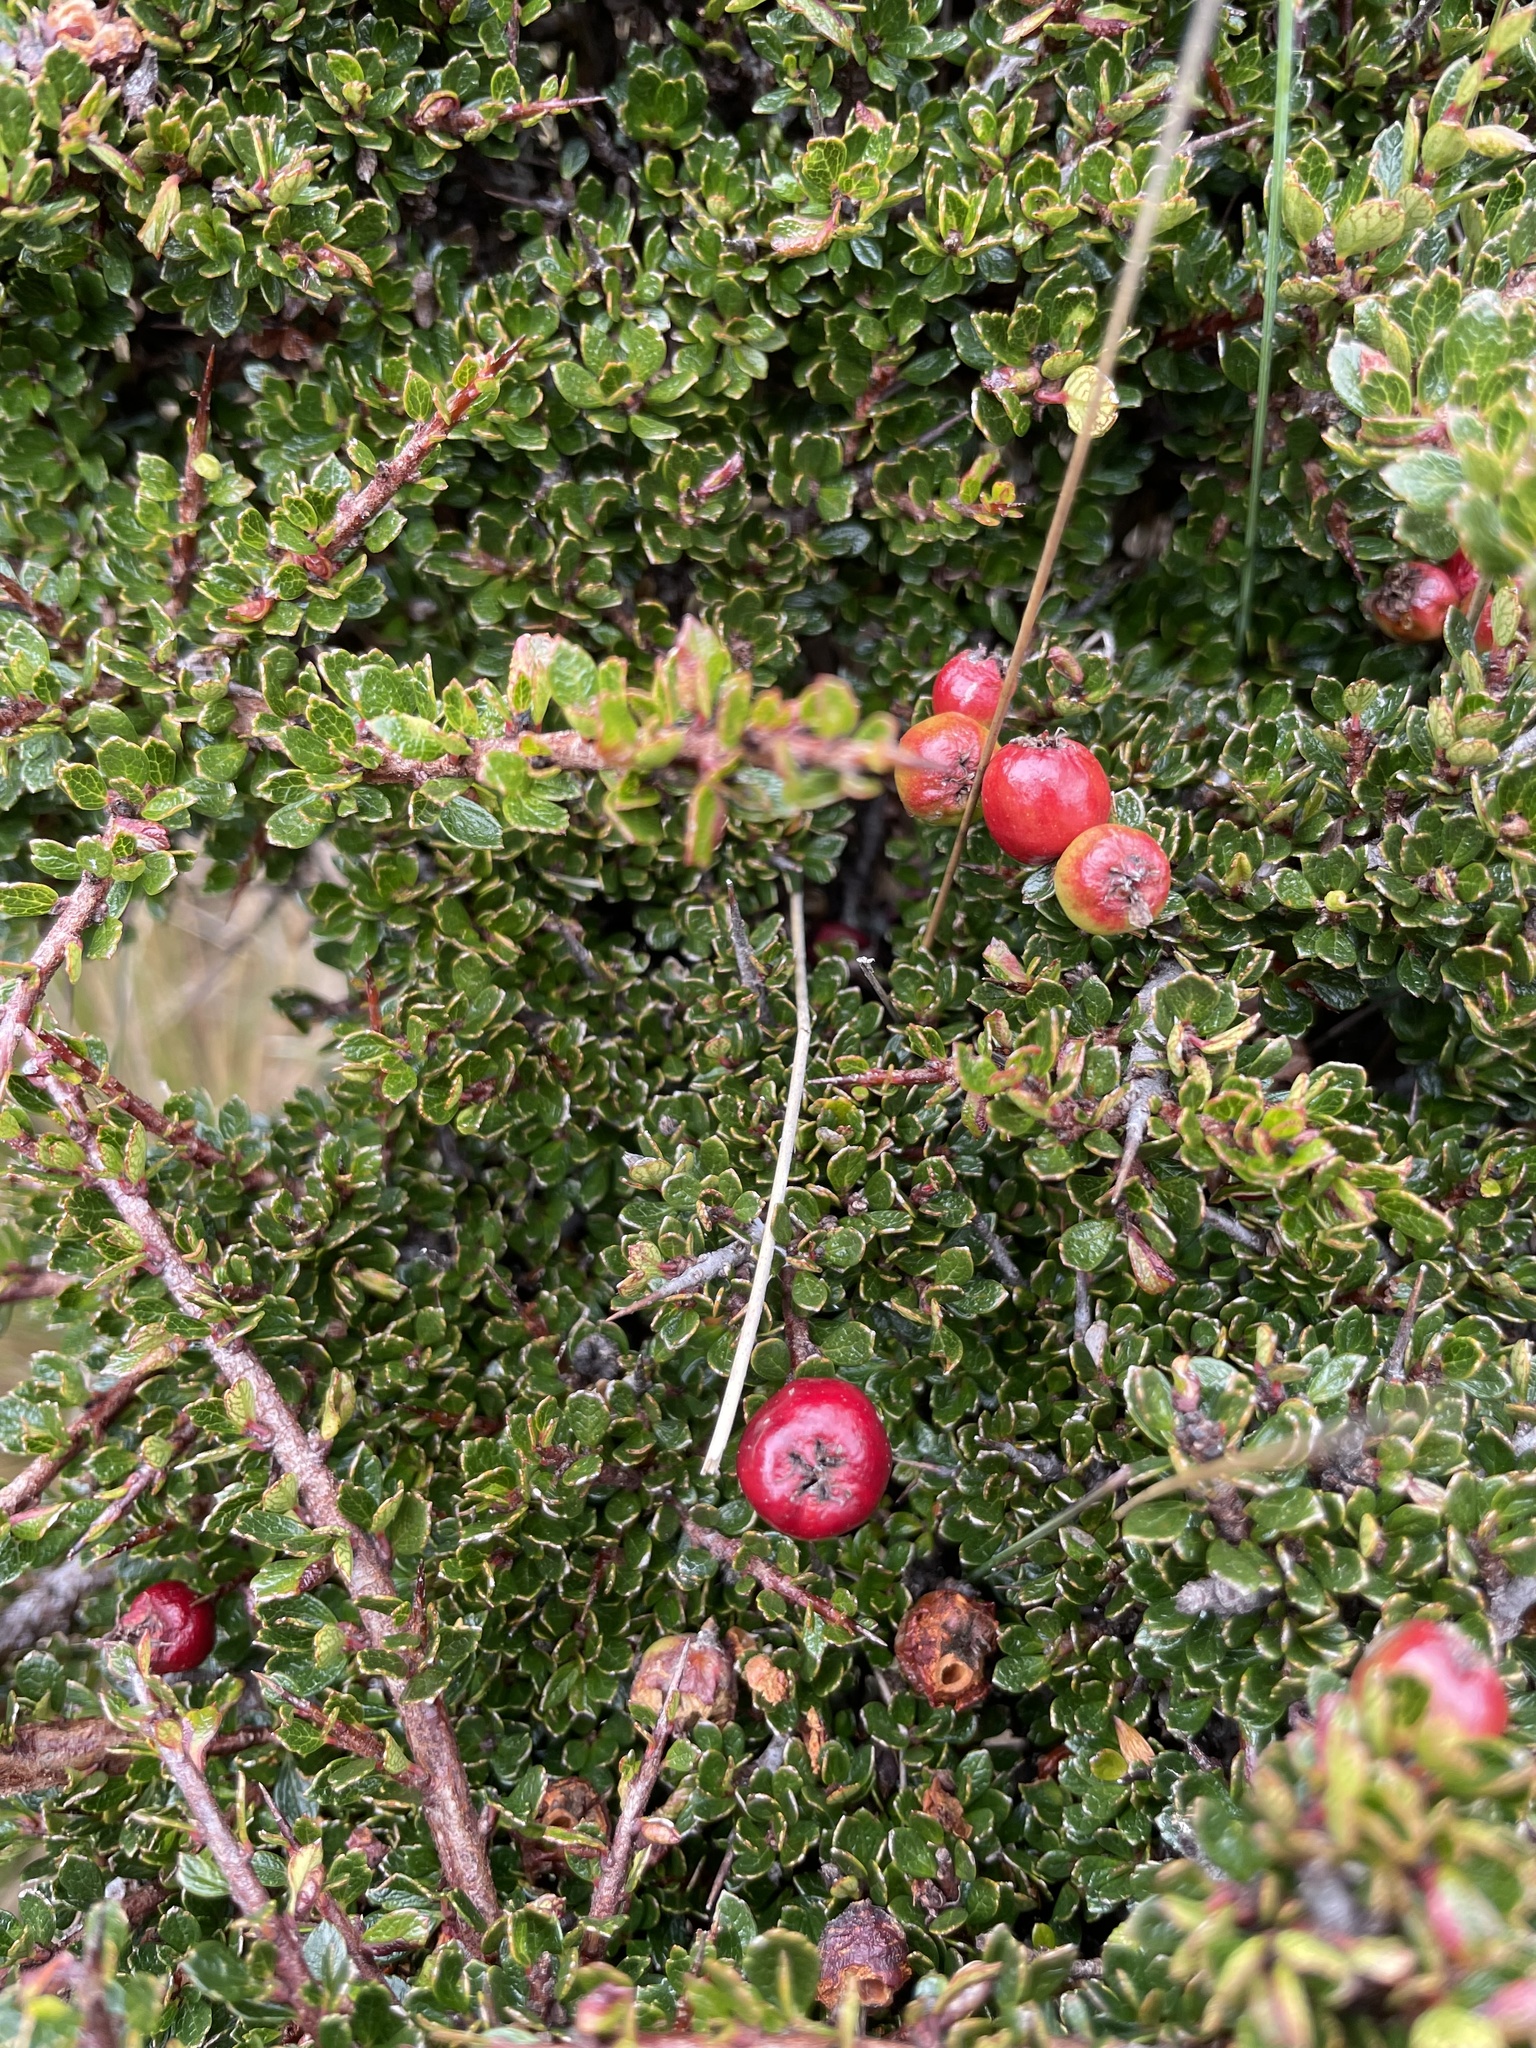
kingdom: Plantae
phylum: Tracheophyta
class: Magnoliopsida
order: Rosales
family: Rosaceae
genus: Hesperomeles
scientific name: Hesperomeles obtusifolia
